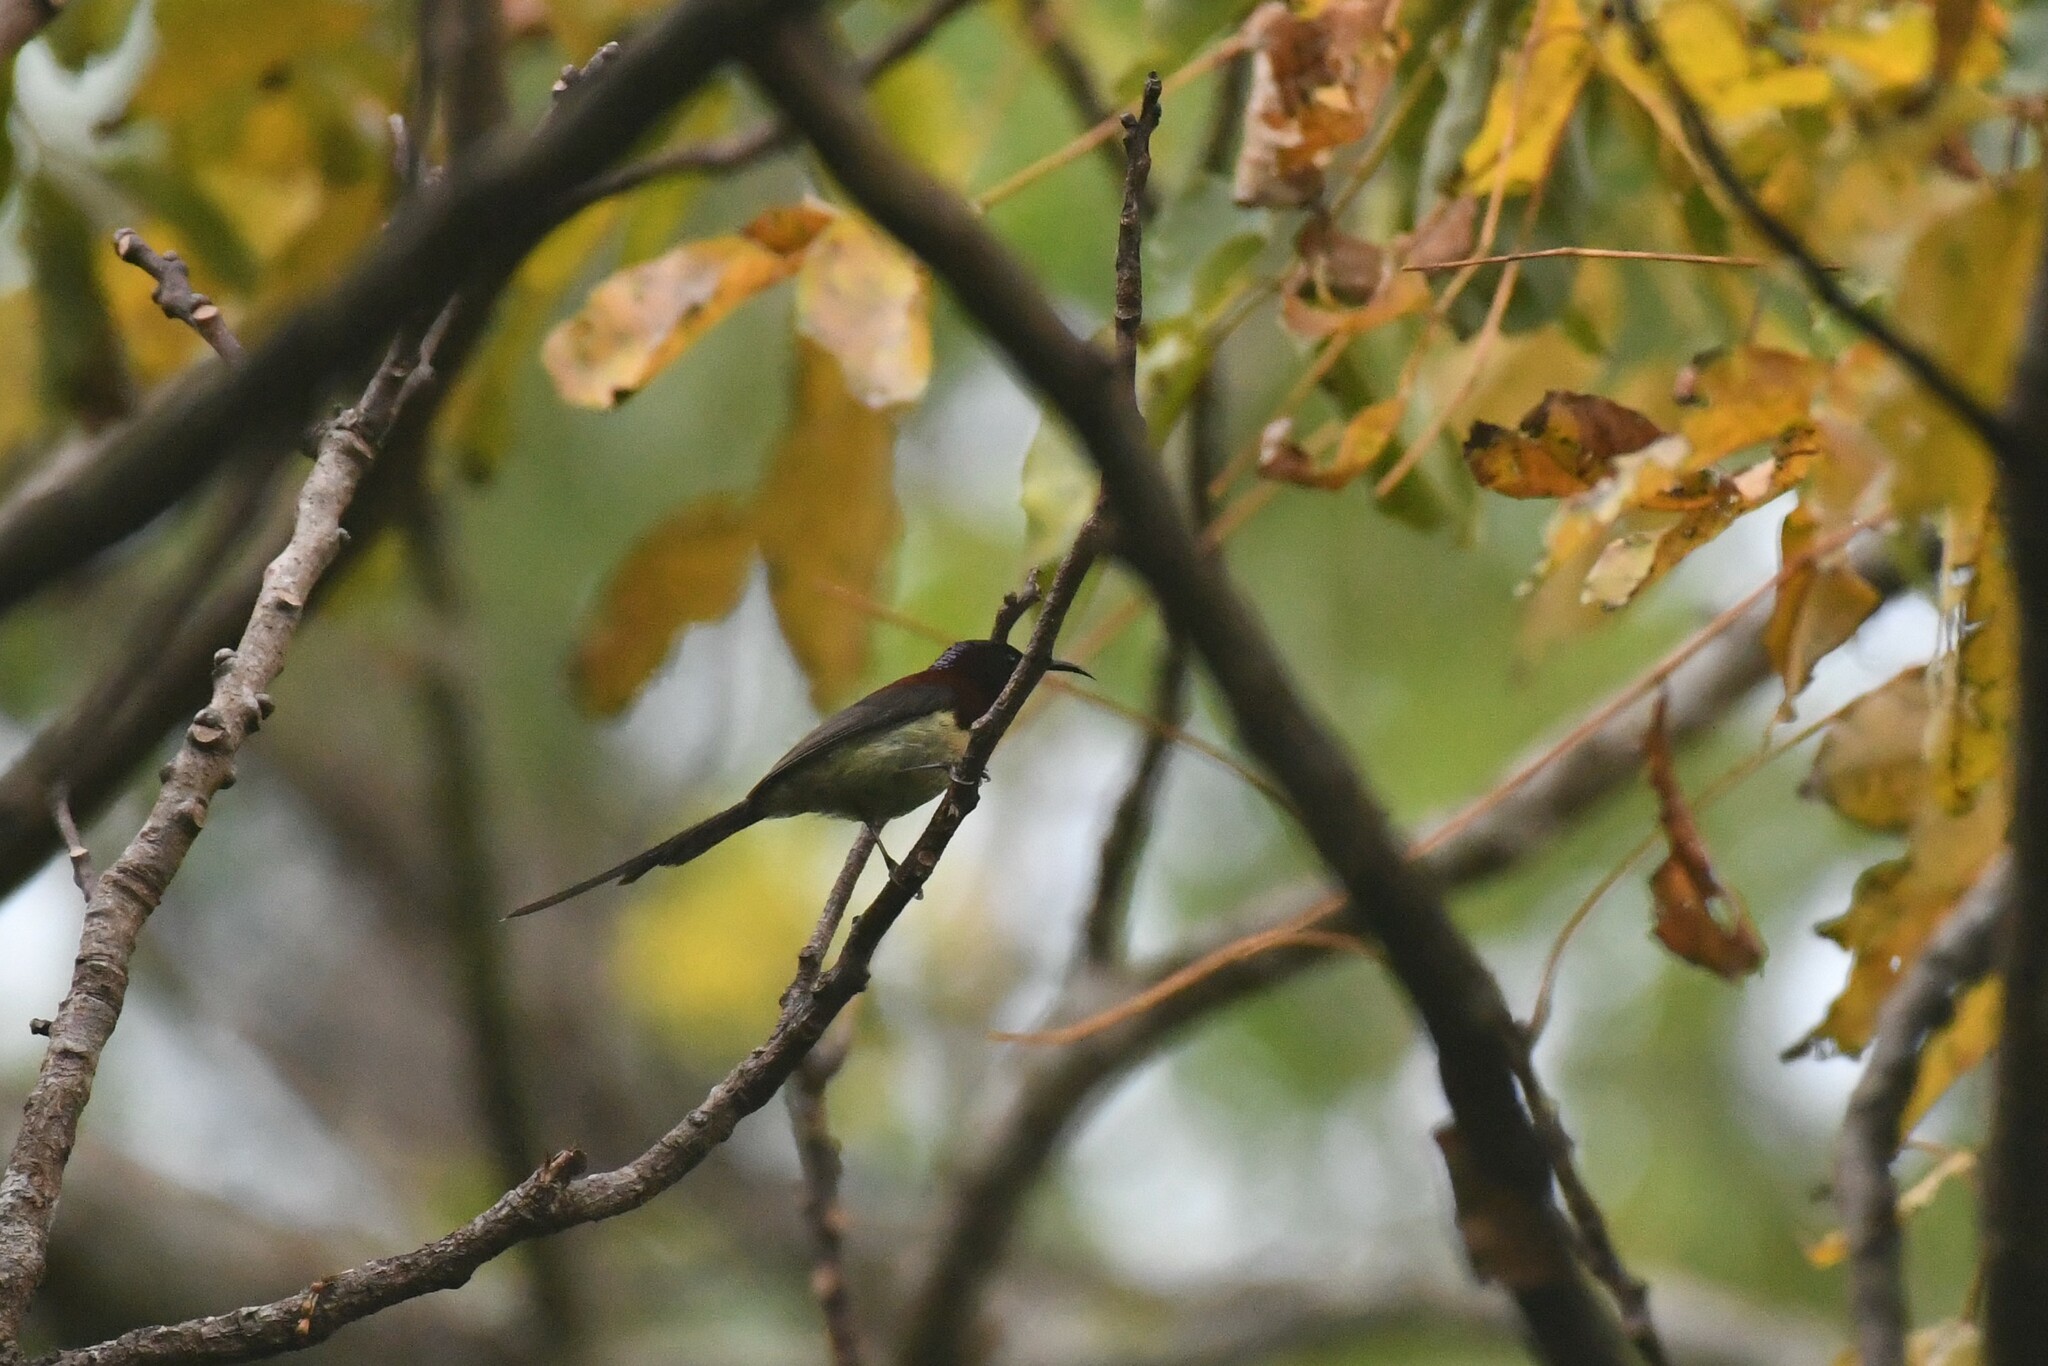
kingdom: Animalia
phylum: Chordata
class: Aves
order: Passeriformes
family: Nectariniidae
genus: Aethopyga
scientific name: Aethopyga saturata
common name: Black-throated sunbird
